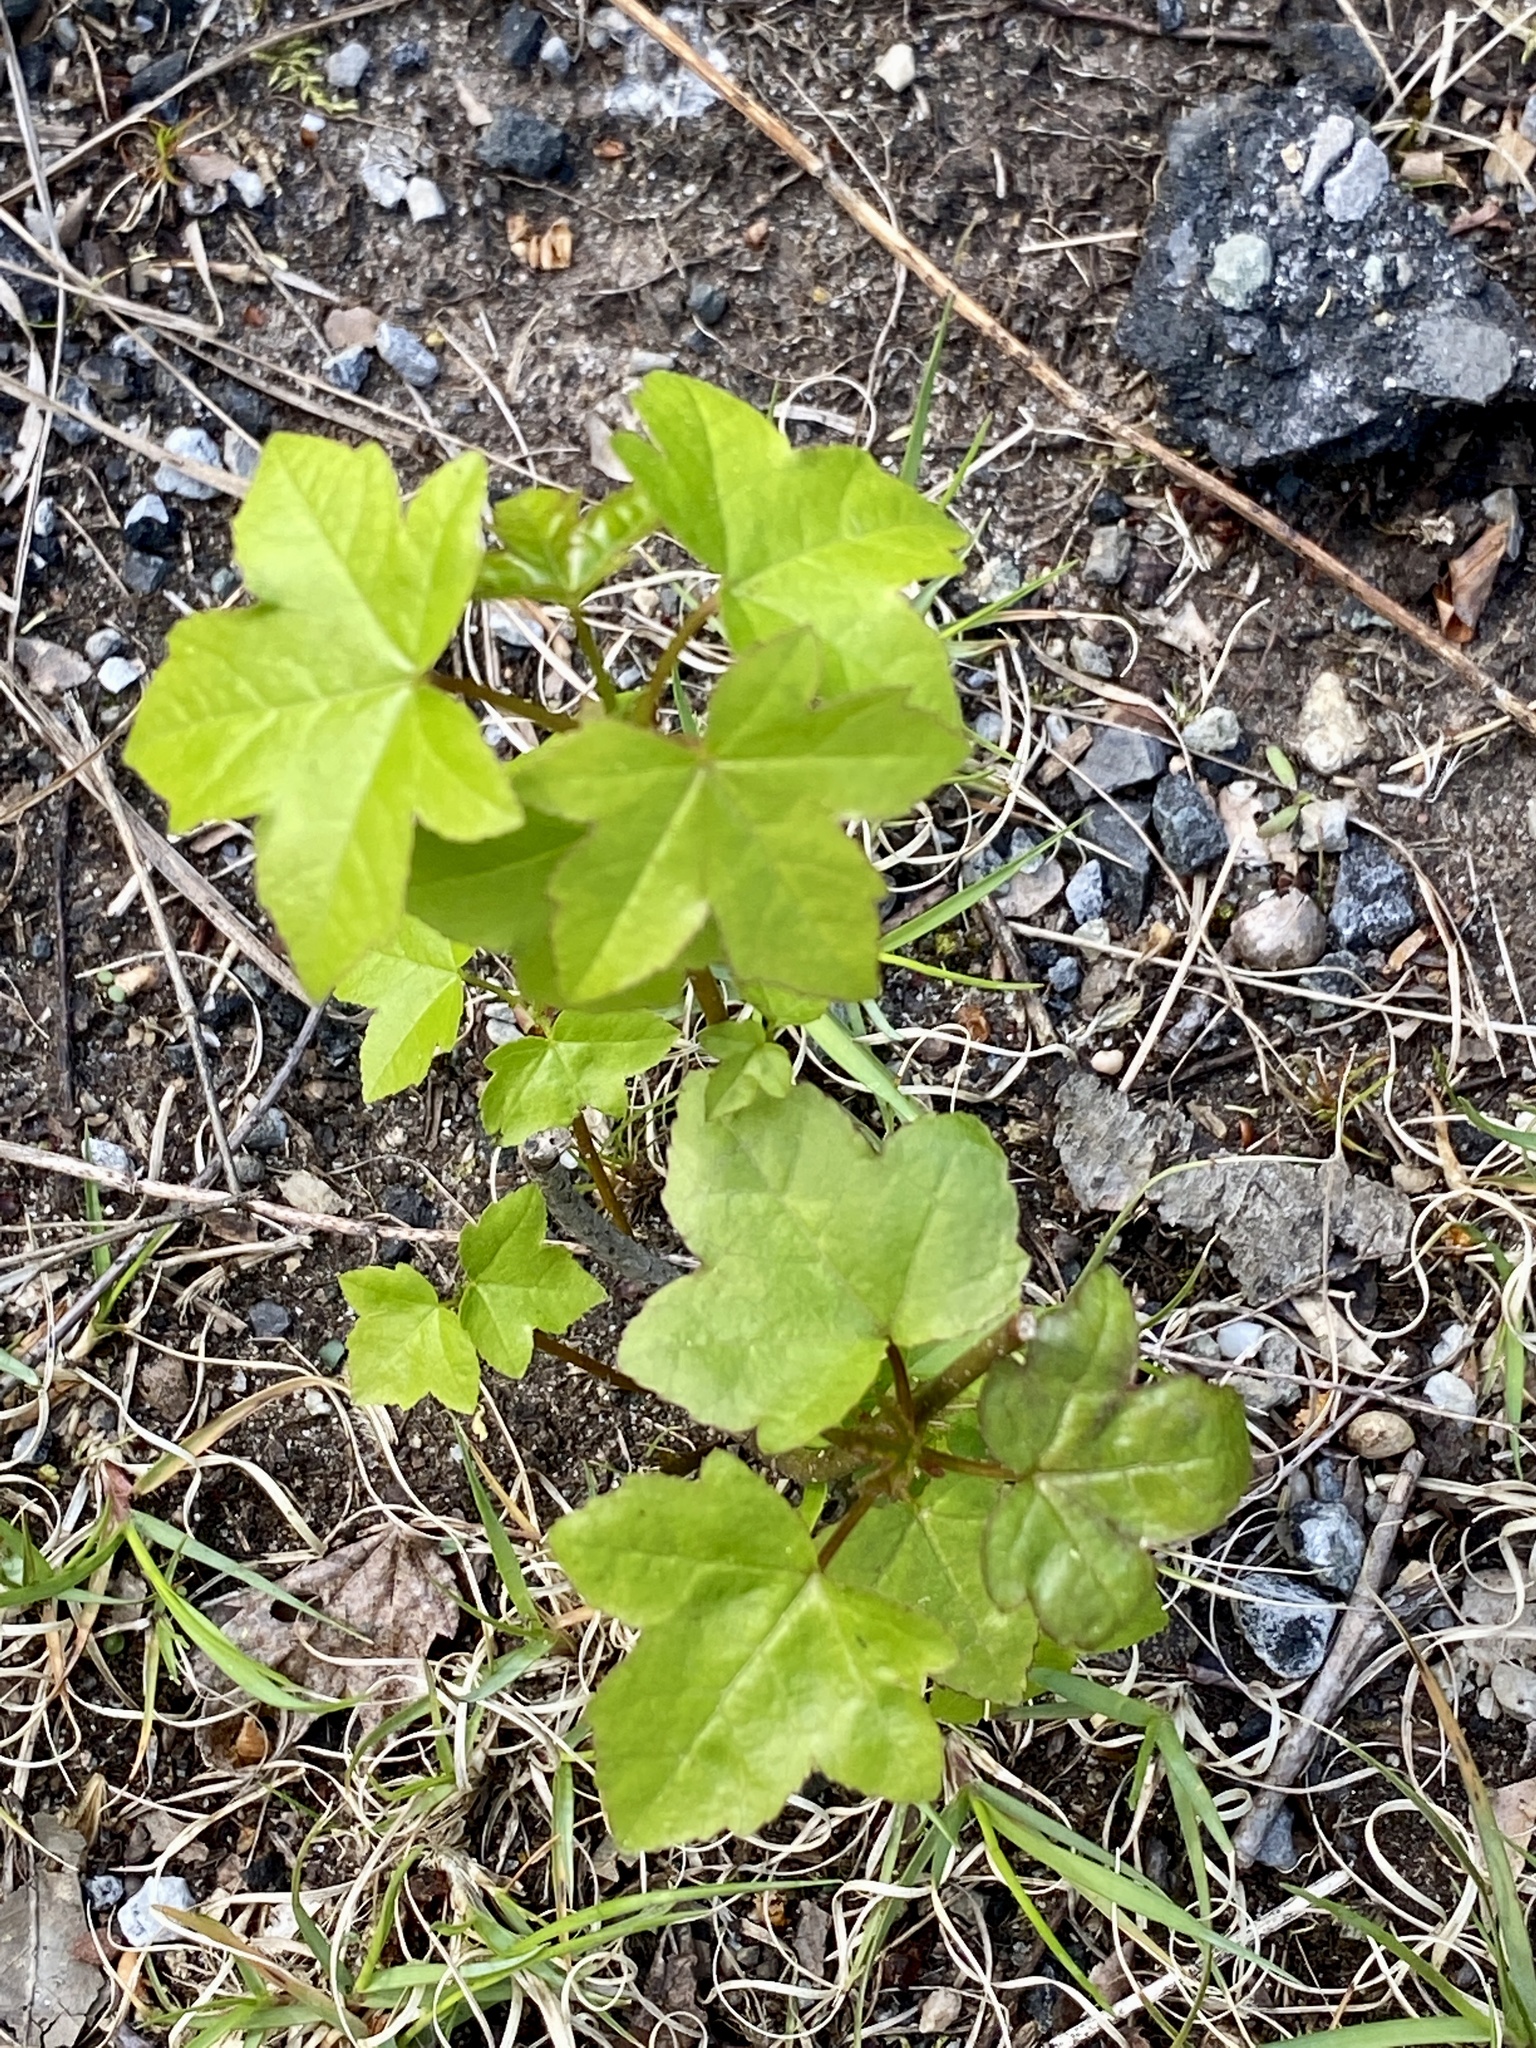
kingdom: Plantae
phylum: Tracheophyta
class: Magnoliopsida
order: Saxifragales
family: Altingiaceae
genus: Liquidambar
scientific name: Liquidambar styraciflua
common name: Sweet gum
